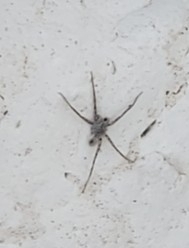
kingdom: Animalia
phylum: Arthropoda
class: Arachnida
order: Araneae
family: Lycosidae
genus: Pardosa
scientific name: Pardosa mercurialis
